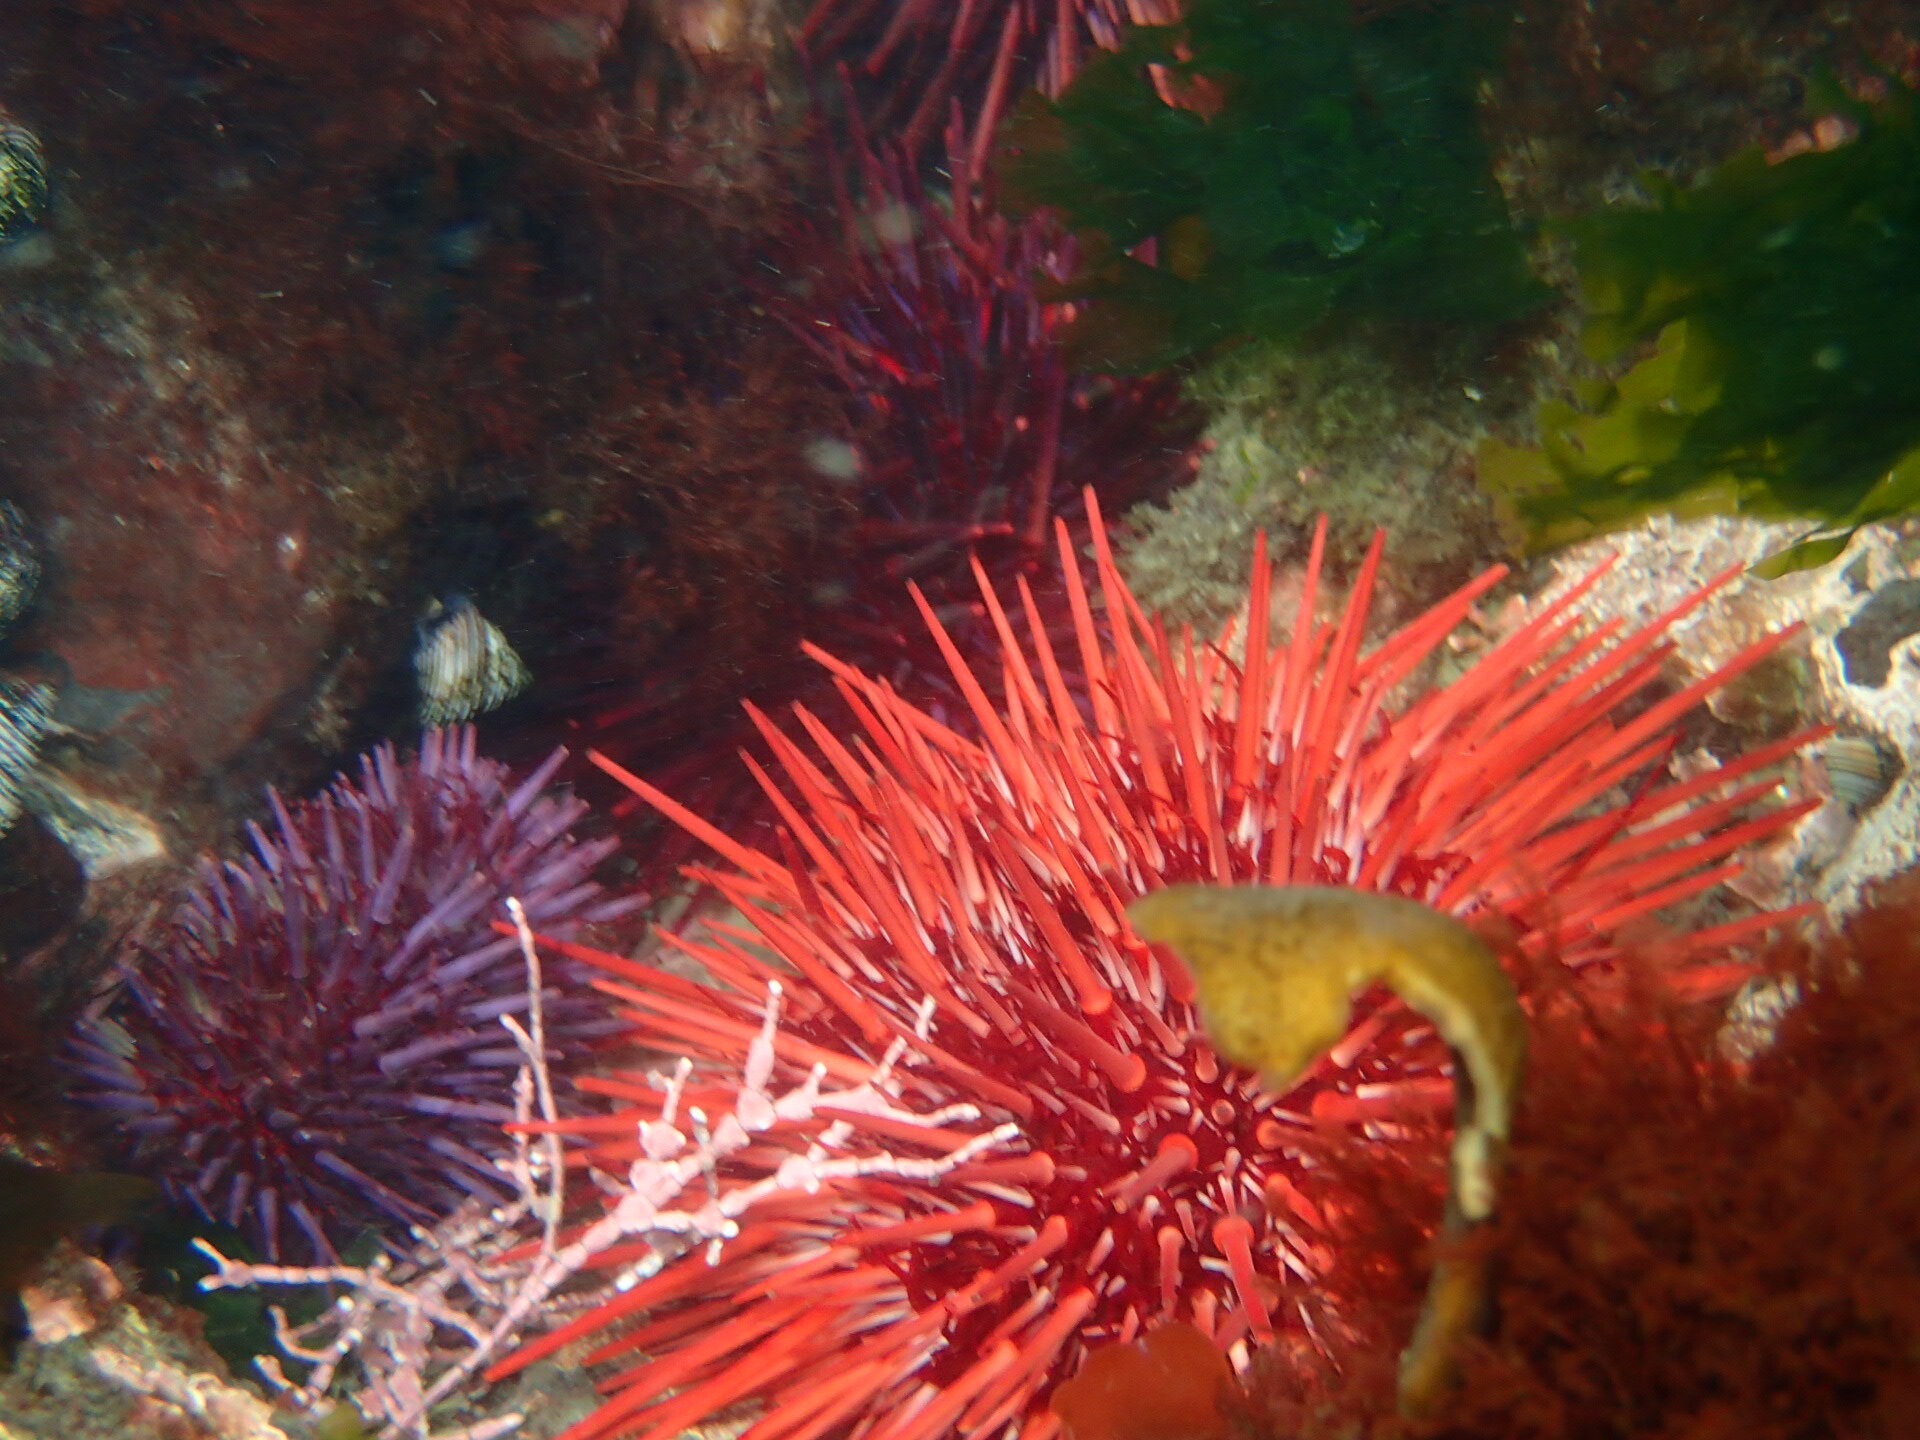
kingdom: Animalia
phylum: Echinodermata
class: Echinoidea
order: Camarodonta
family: Strongylocentrotidae
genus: Mesocentrotus
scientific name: Mesocentrotus franciscanus
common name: Red sea urchin
